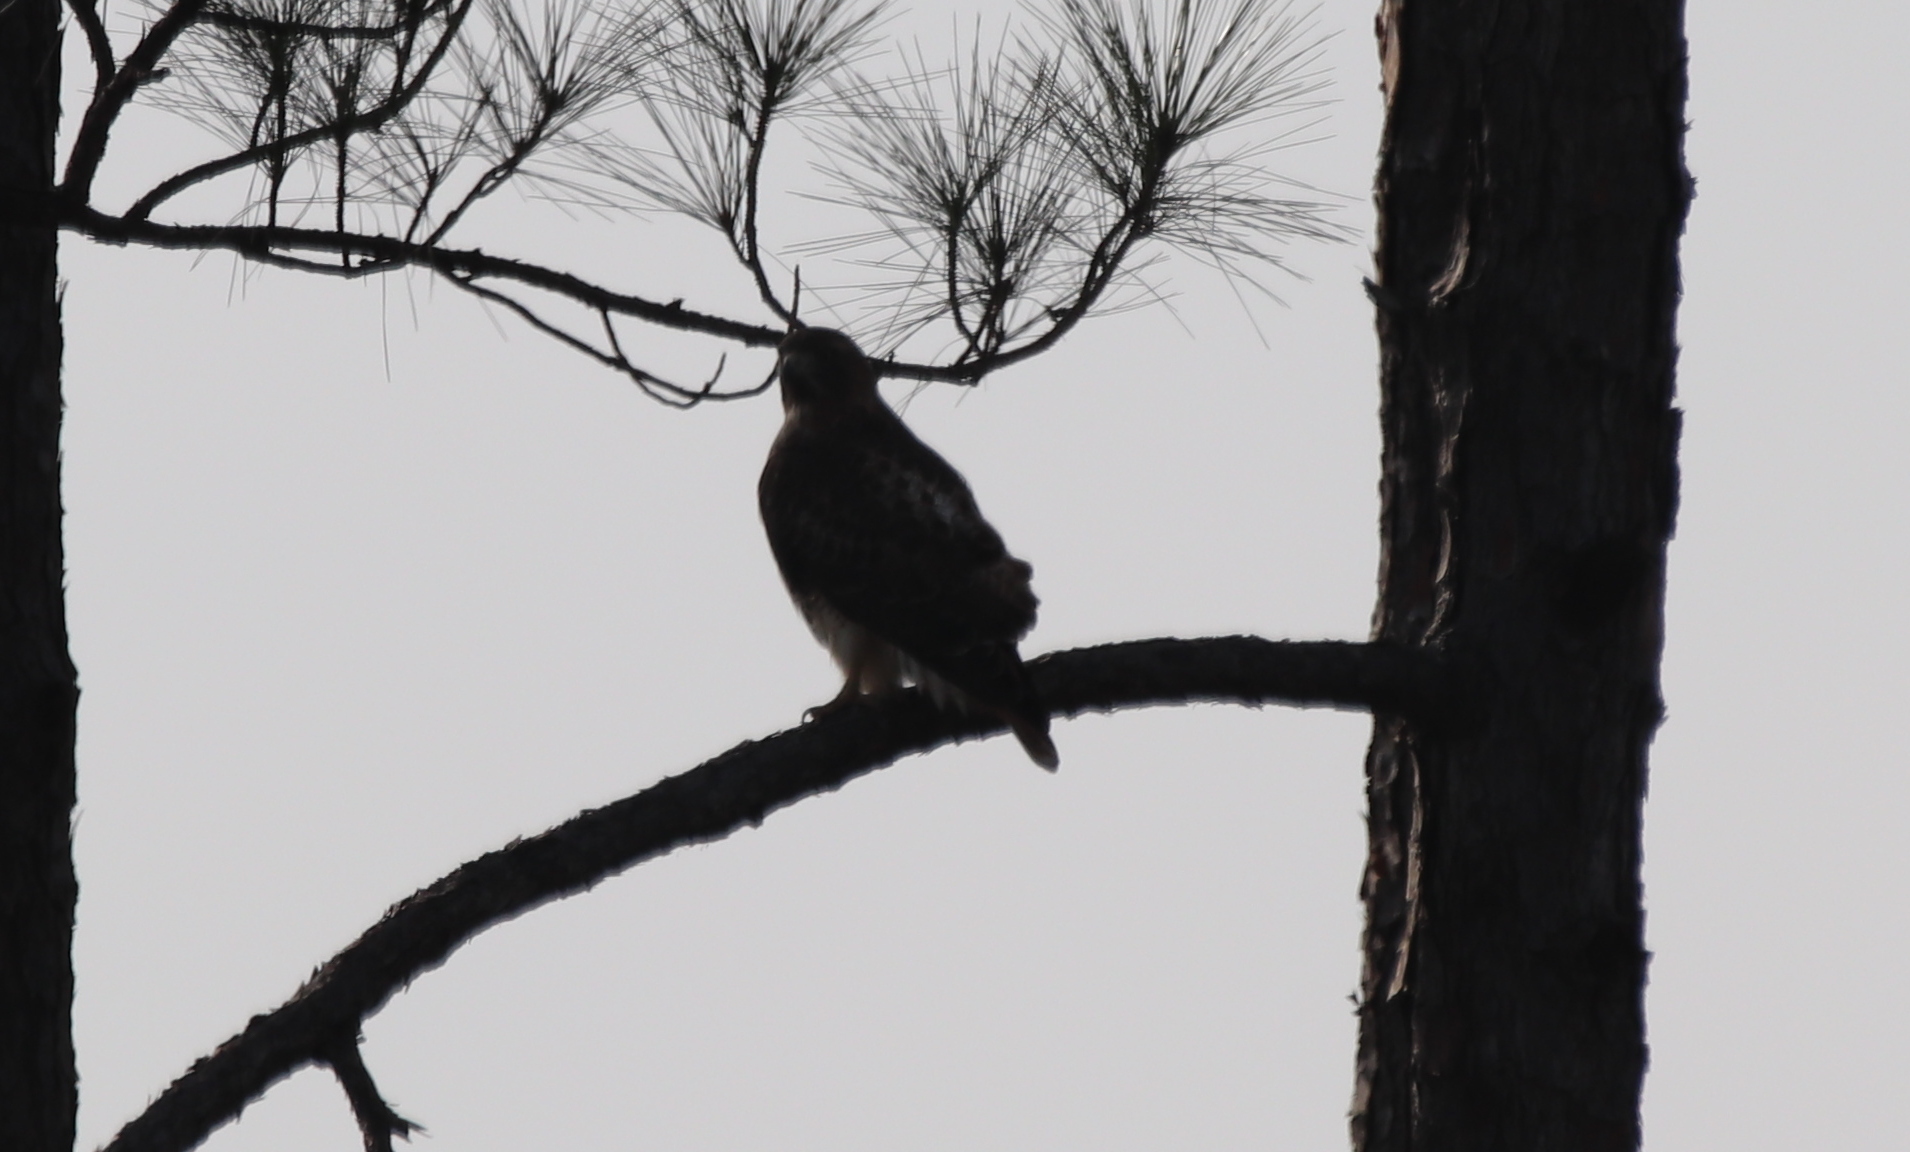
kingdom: Animalia
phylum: Chordata
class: Aves
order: Accipitriformes
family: Accipitridae
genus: Buteo
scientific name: Buteo jamaicensis
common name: Red-tailed hawk
